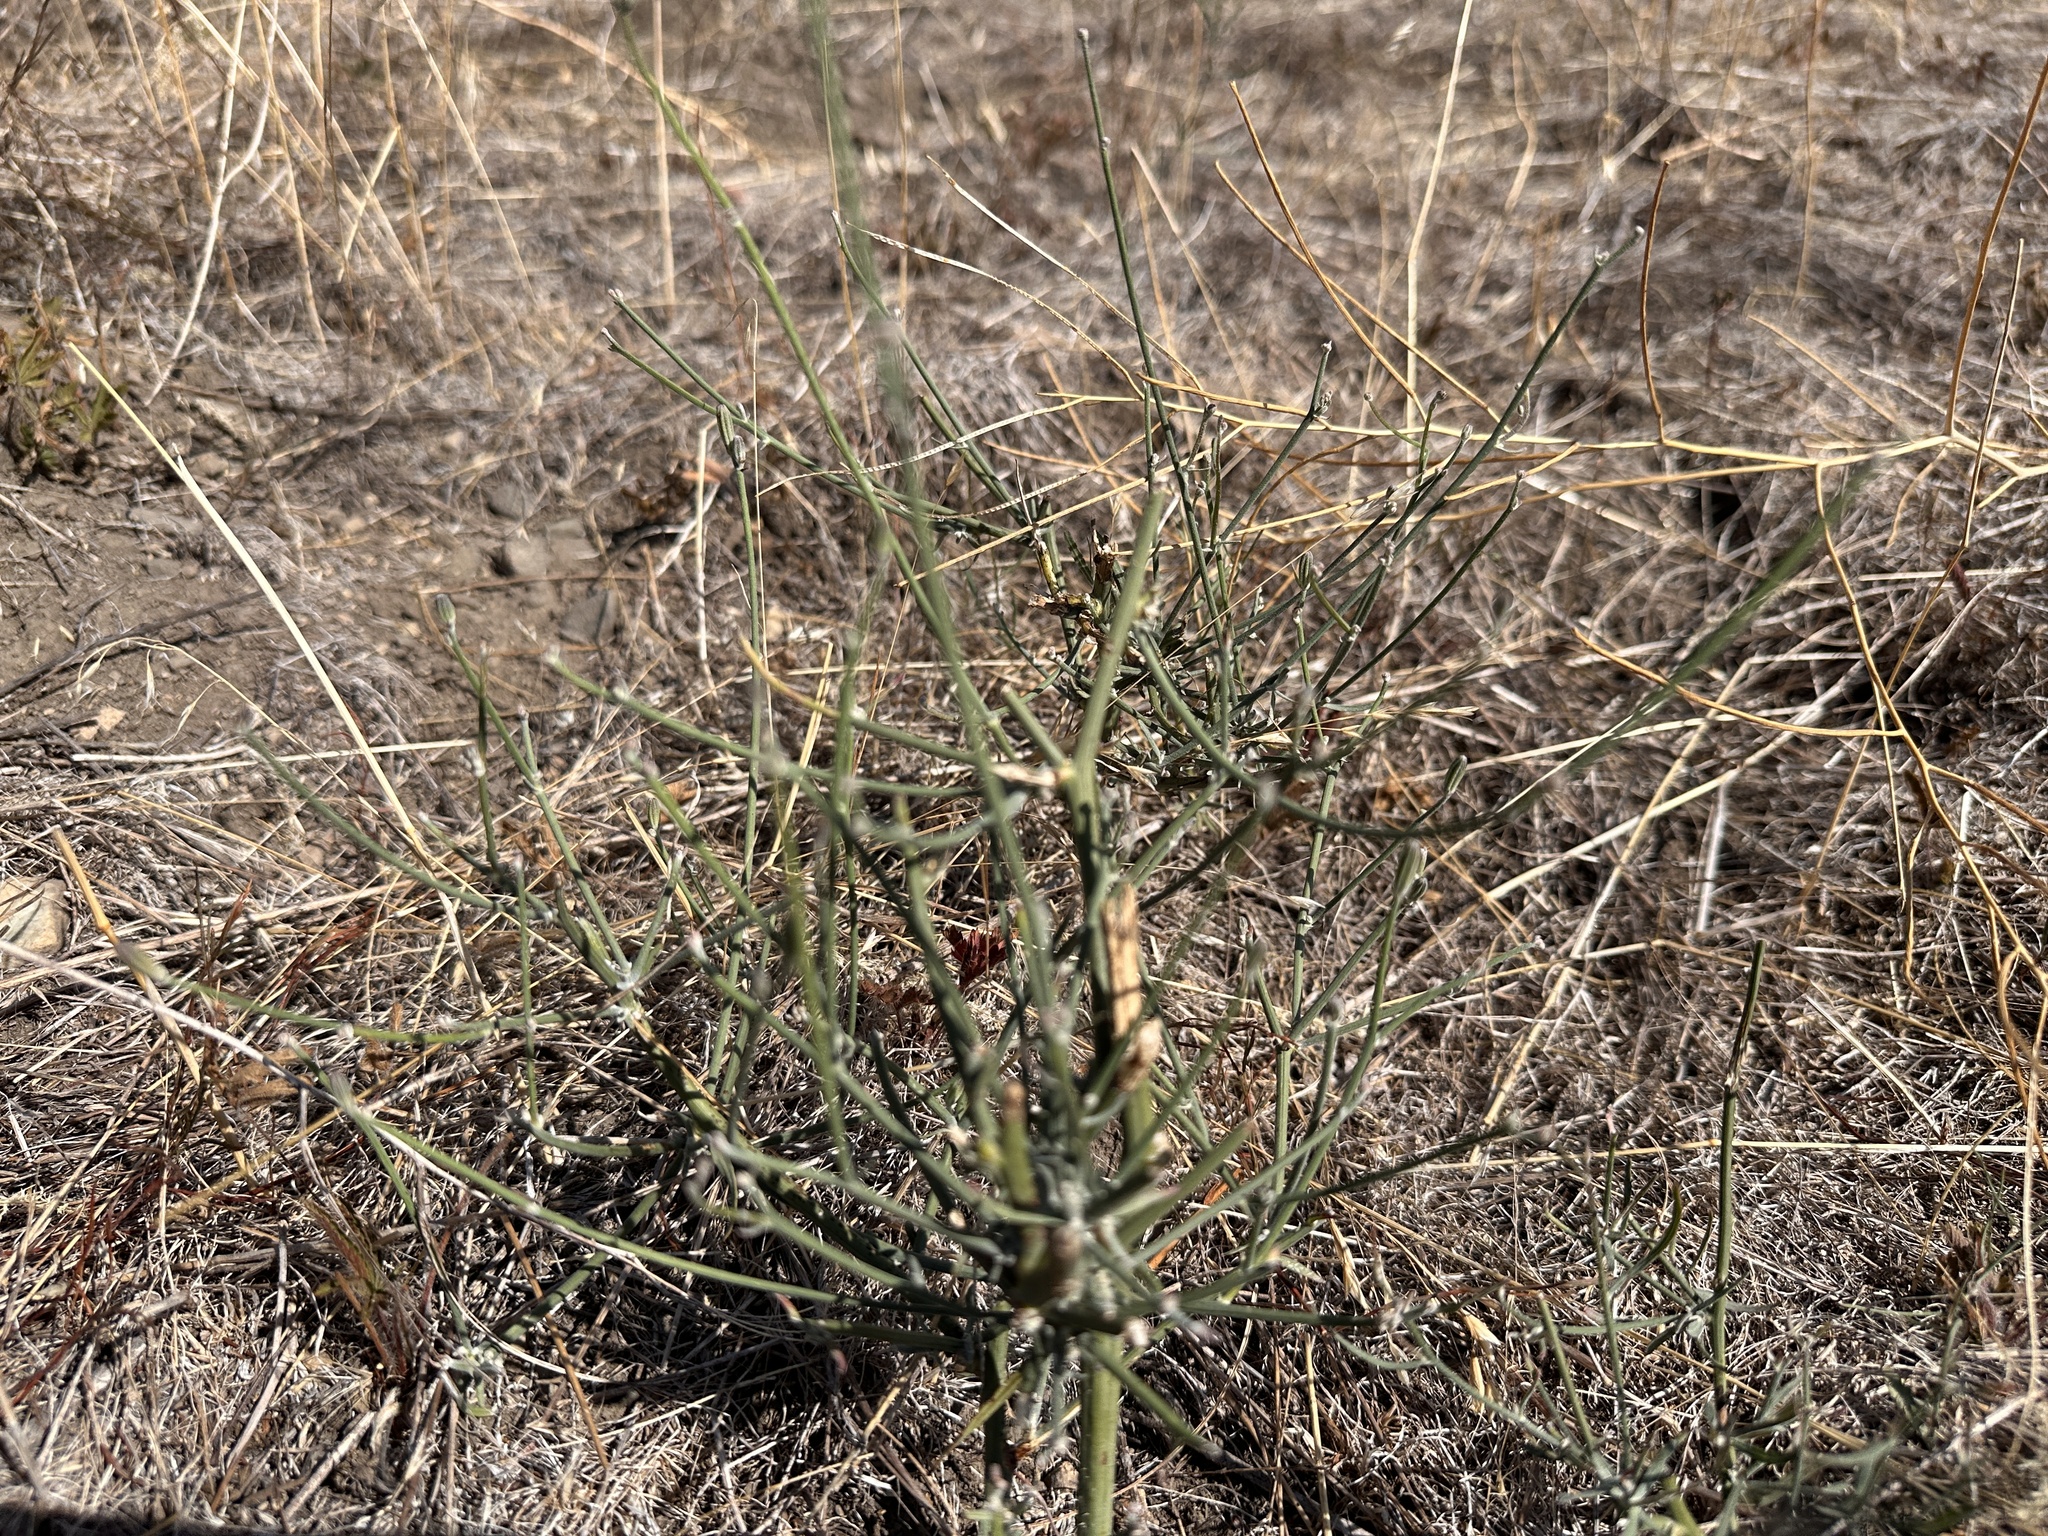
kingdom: Plantae
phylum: Tracheophyta
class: Magnoliopsida
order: Asterales
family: Asteraceae
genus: Chondrilla
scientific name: Chondrilla juncea
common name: Skeleton weed
